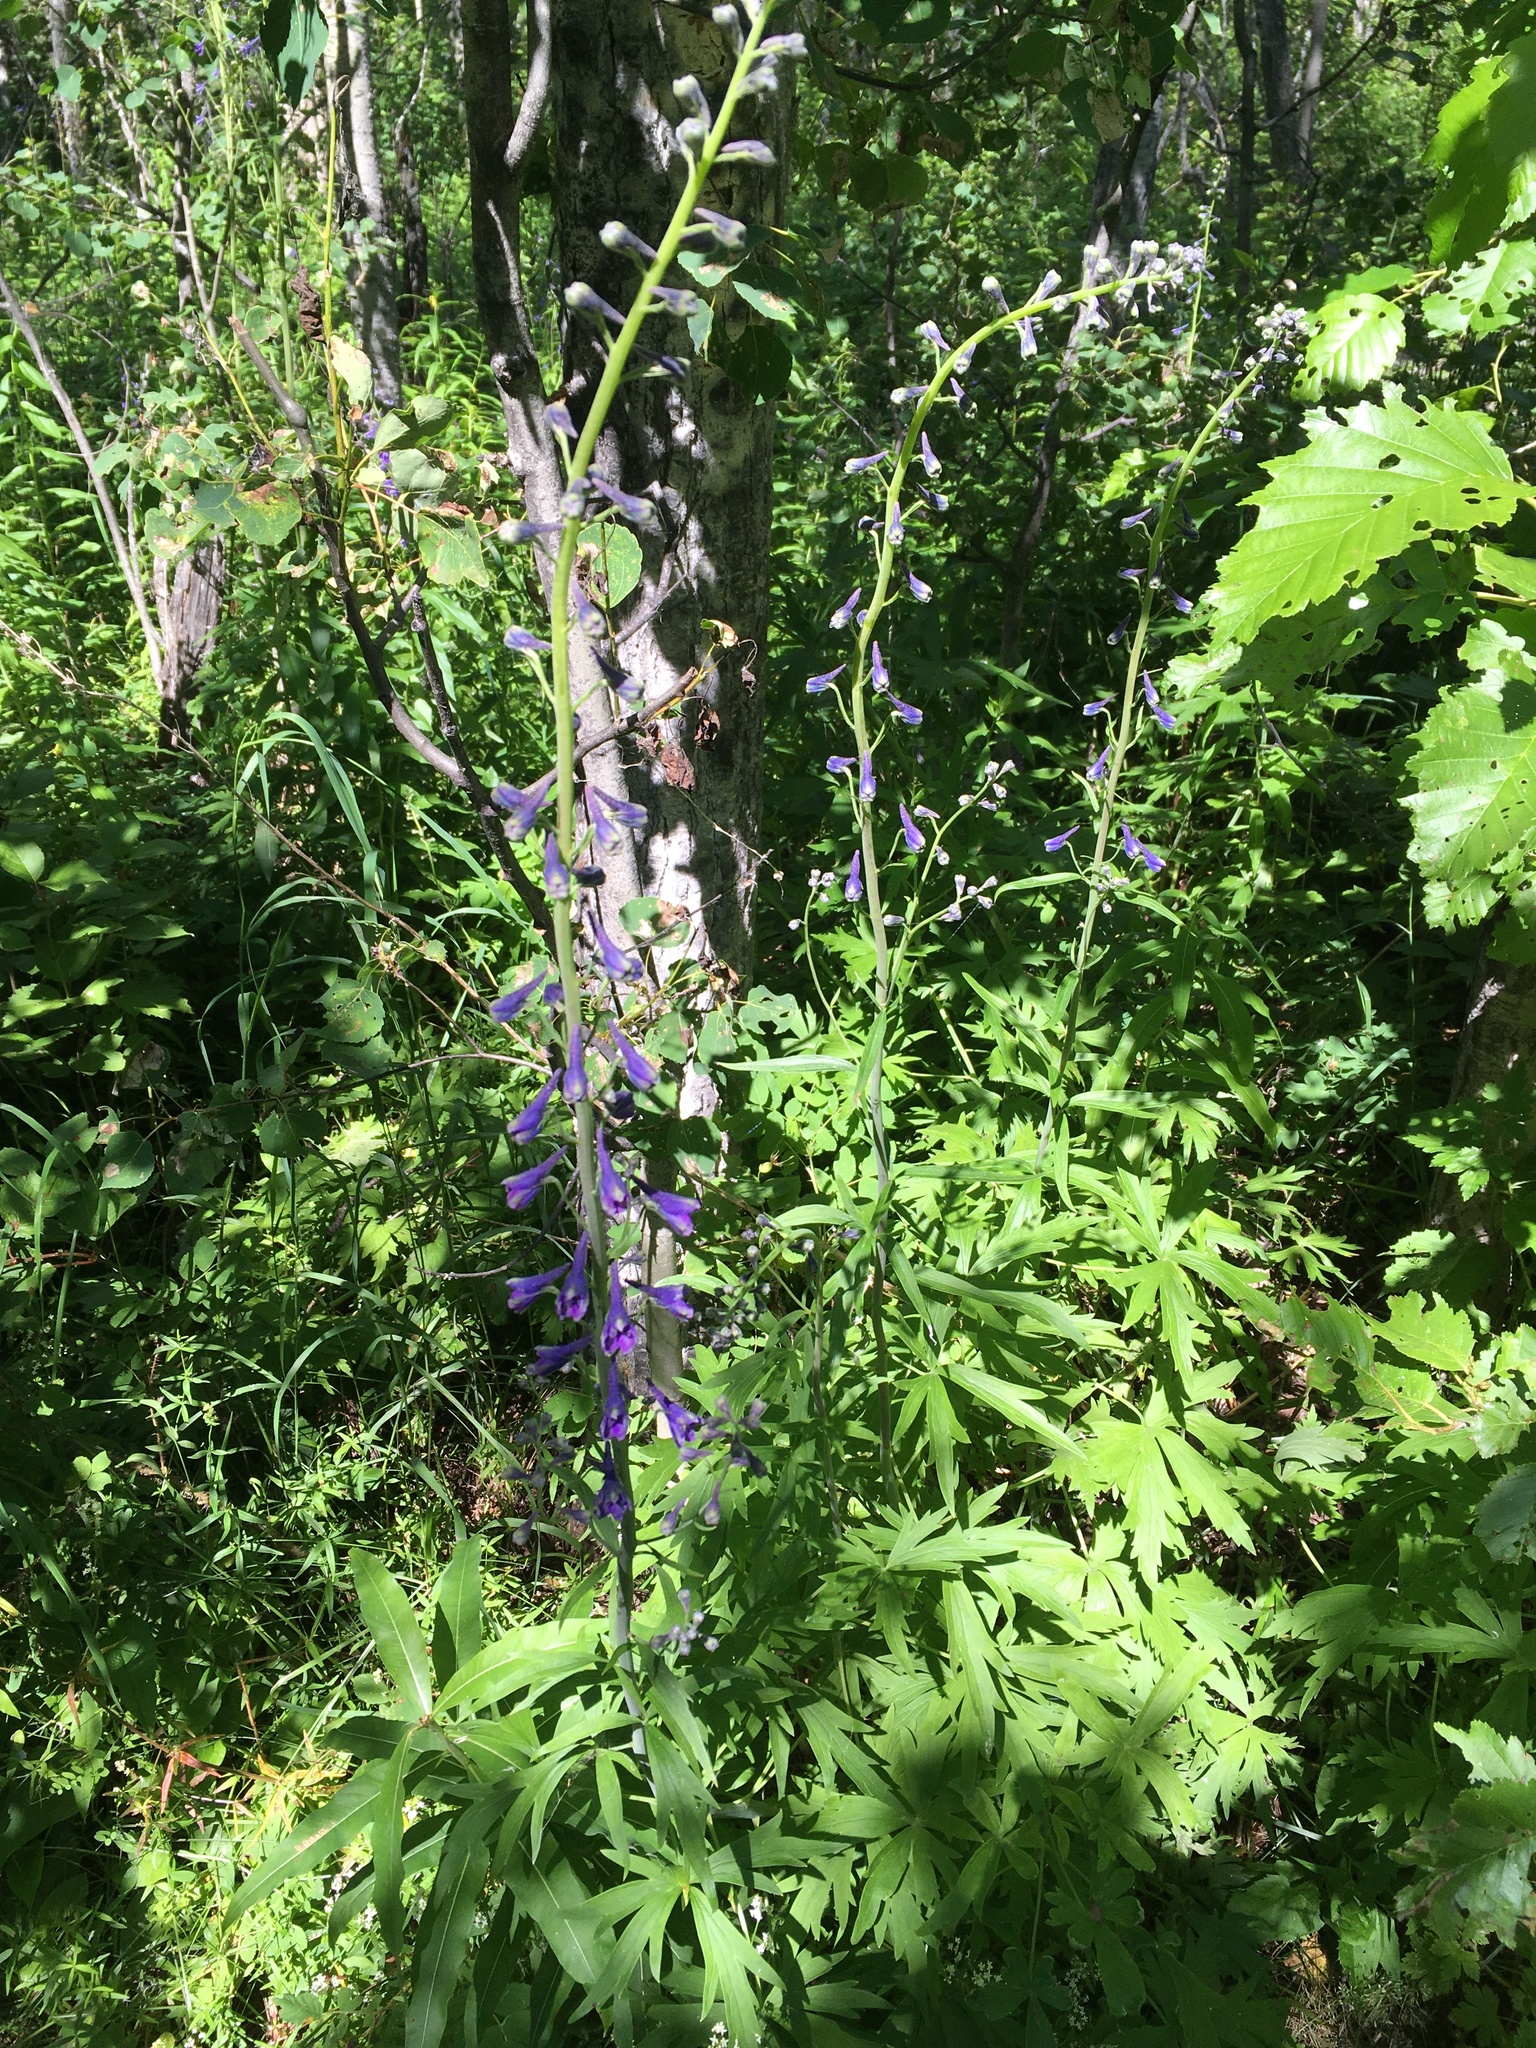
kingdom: Plantae
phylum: Tracheophyta
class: Magnoliopsida
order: Ranunculales
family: Ranunculaceae
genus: Delphinium
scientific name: Delphinium glaucum
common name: Brown's larkspur
